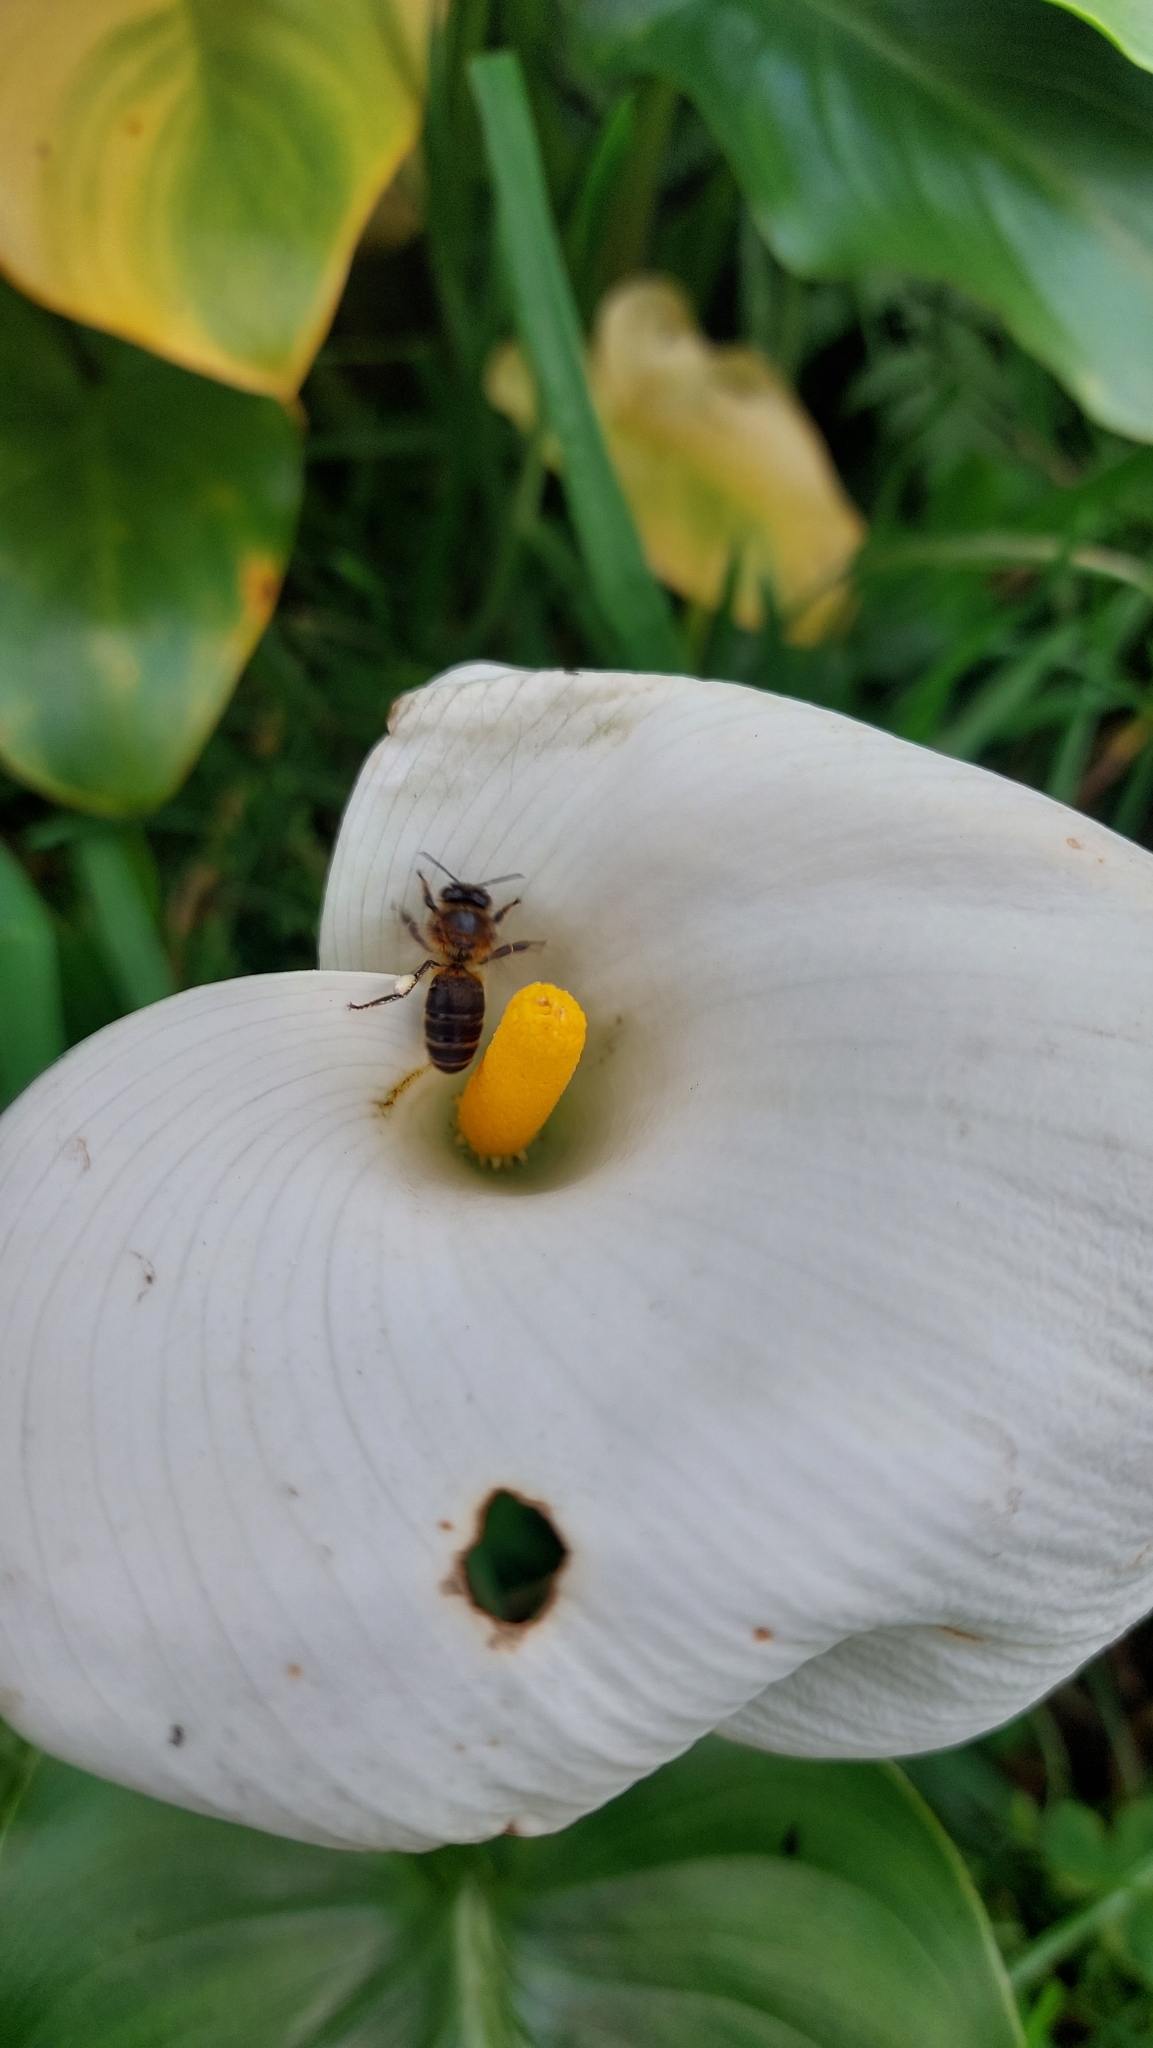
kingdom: Animalia
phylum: Arthropoda
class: Insecta
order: Hymenoptera
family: Apidae
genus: Apis
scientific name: Apis mellifera
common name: Honey bee
